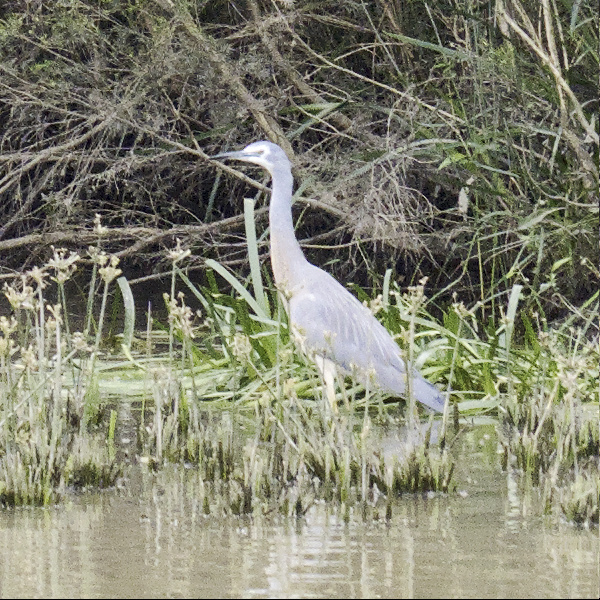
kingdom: Animalia
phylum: Chordata
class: Aves
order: Pelecaniformes
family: Ardeidae
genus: Egretta
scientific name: Egretta novaehollandiae
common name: White-faced heron
